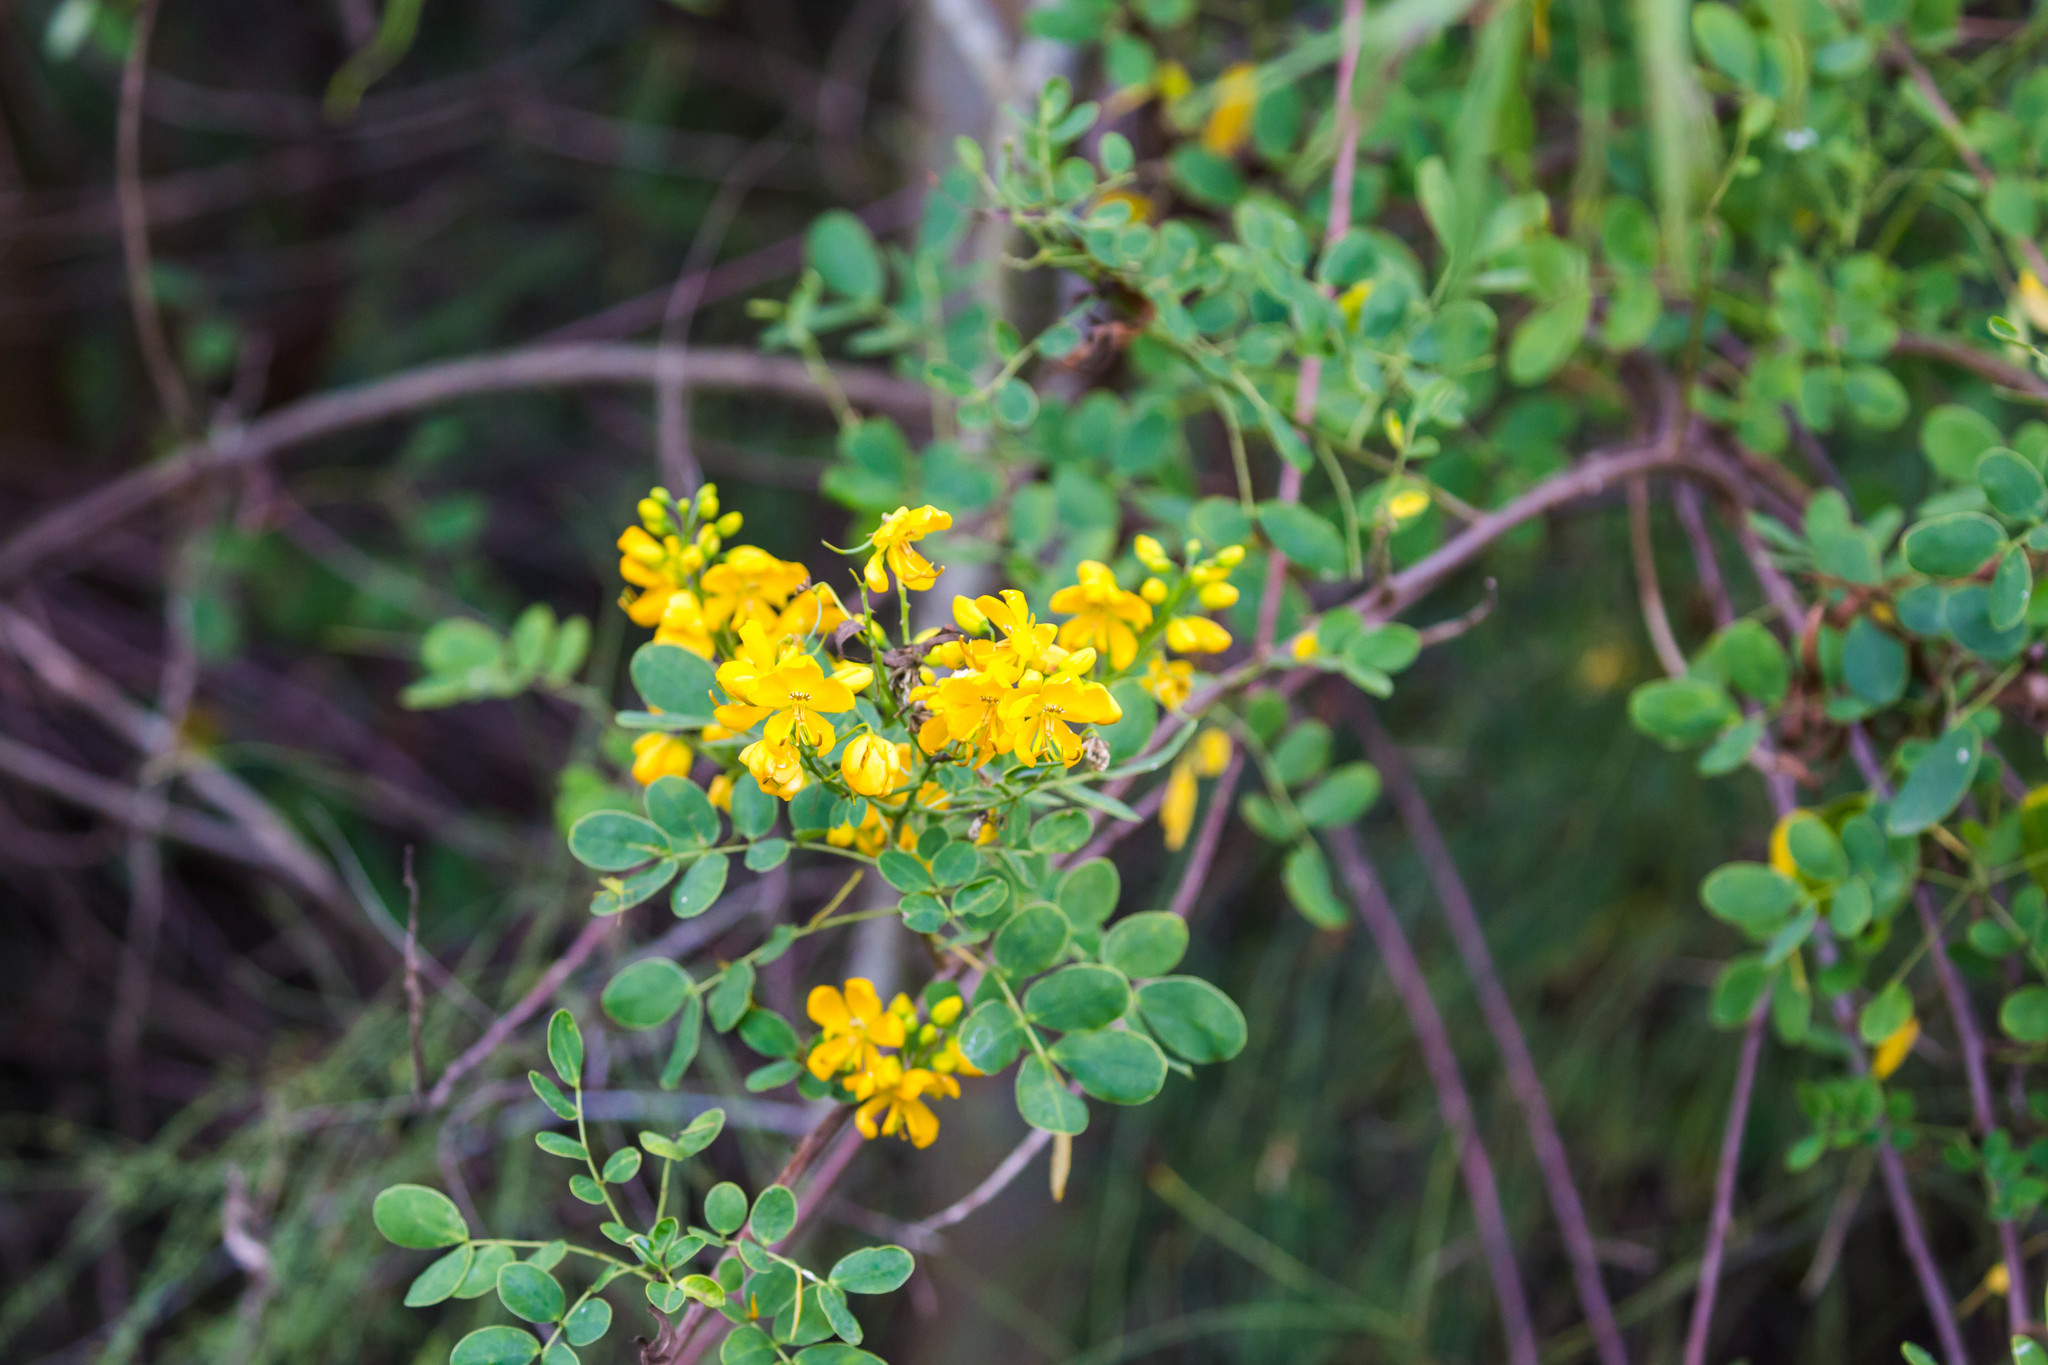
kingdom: Plantae
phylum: Tracheophyta
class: Magnoliopsida
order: Fabales
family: Fabaceae
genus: Senna
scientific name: Senna pendula
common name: Easter cassia
